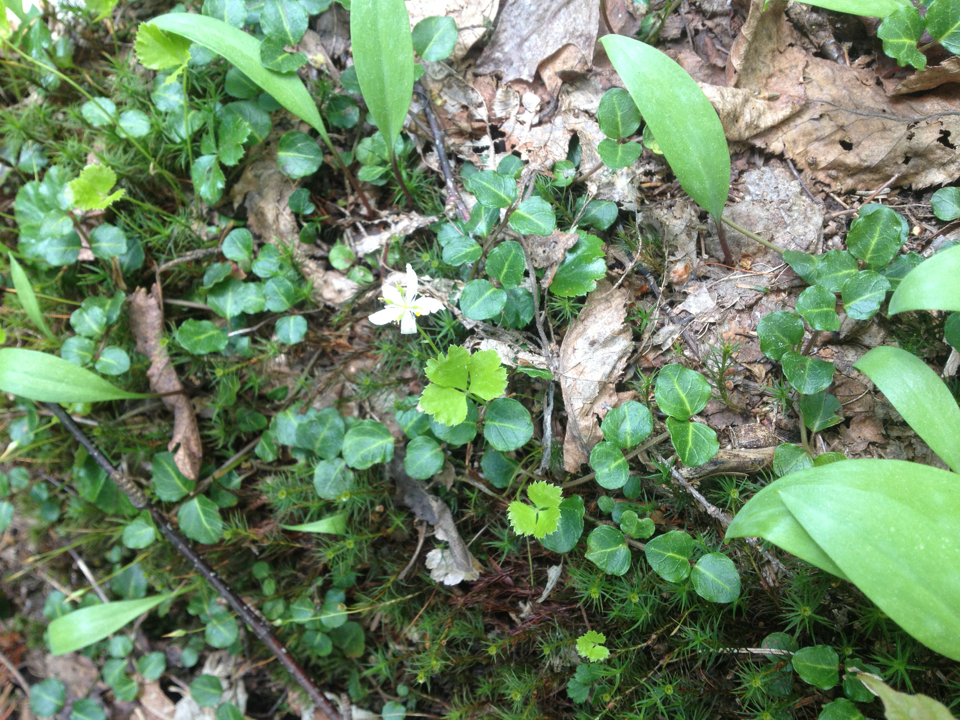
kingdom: Plantae
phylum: Tracheophyta
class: Magnoliopsida
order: Ranunculales
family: Ranunculaceae
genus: Coptis
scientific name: Coptis trifolia
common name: Canker-root
